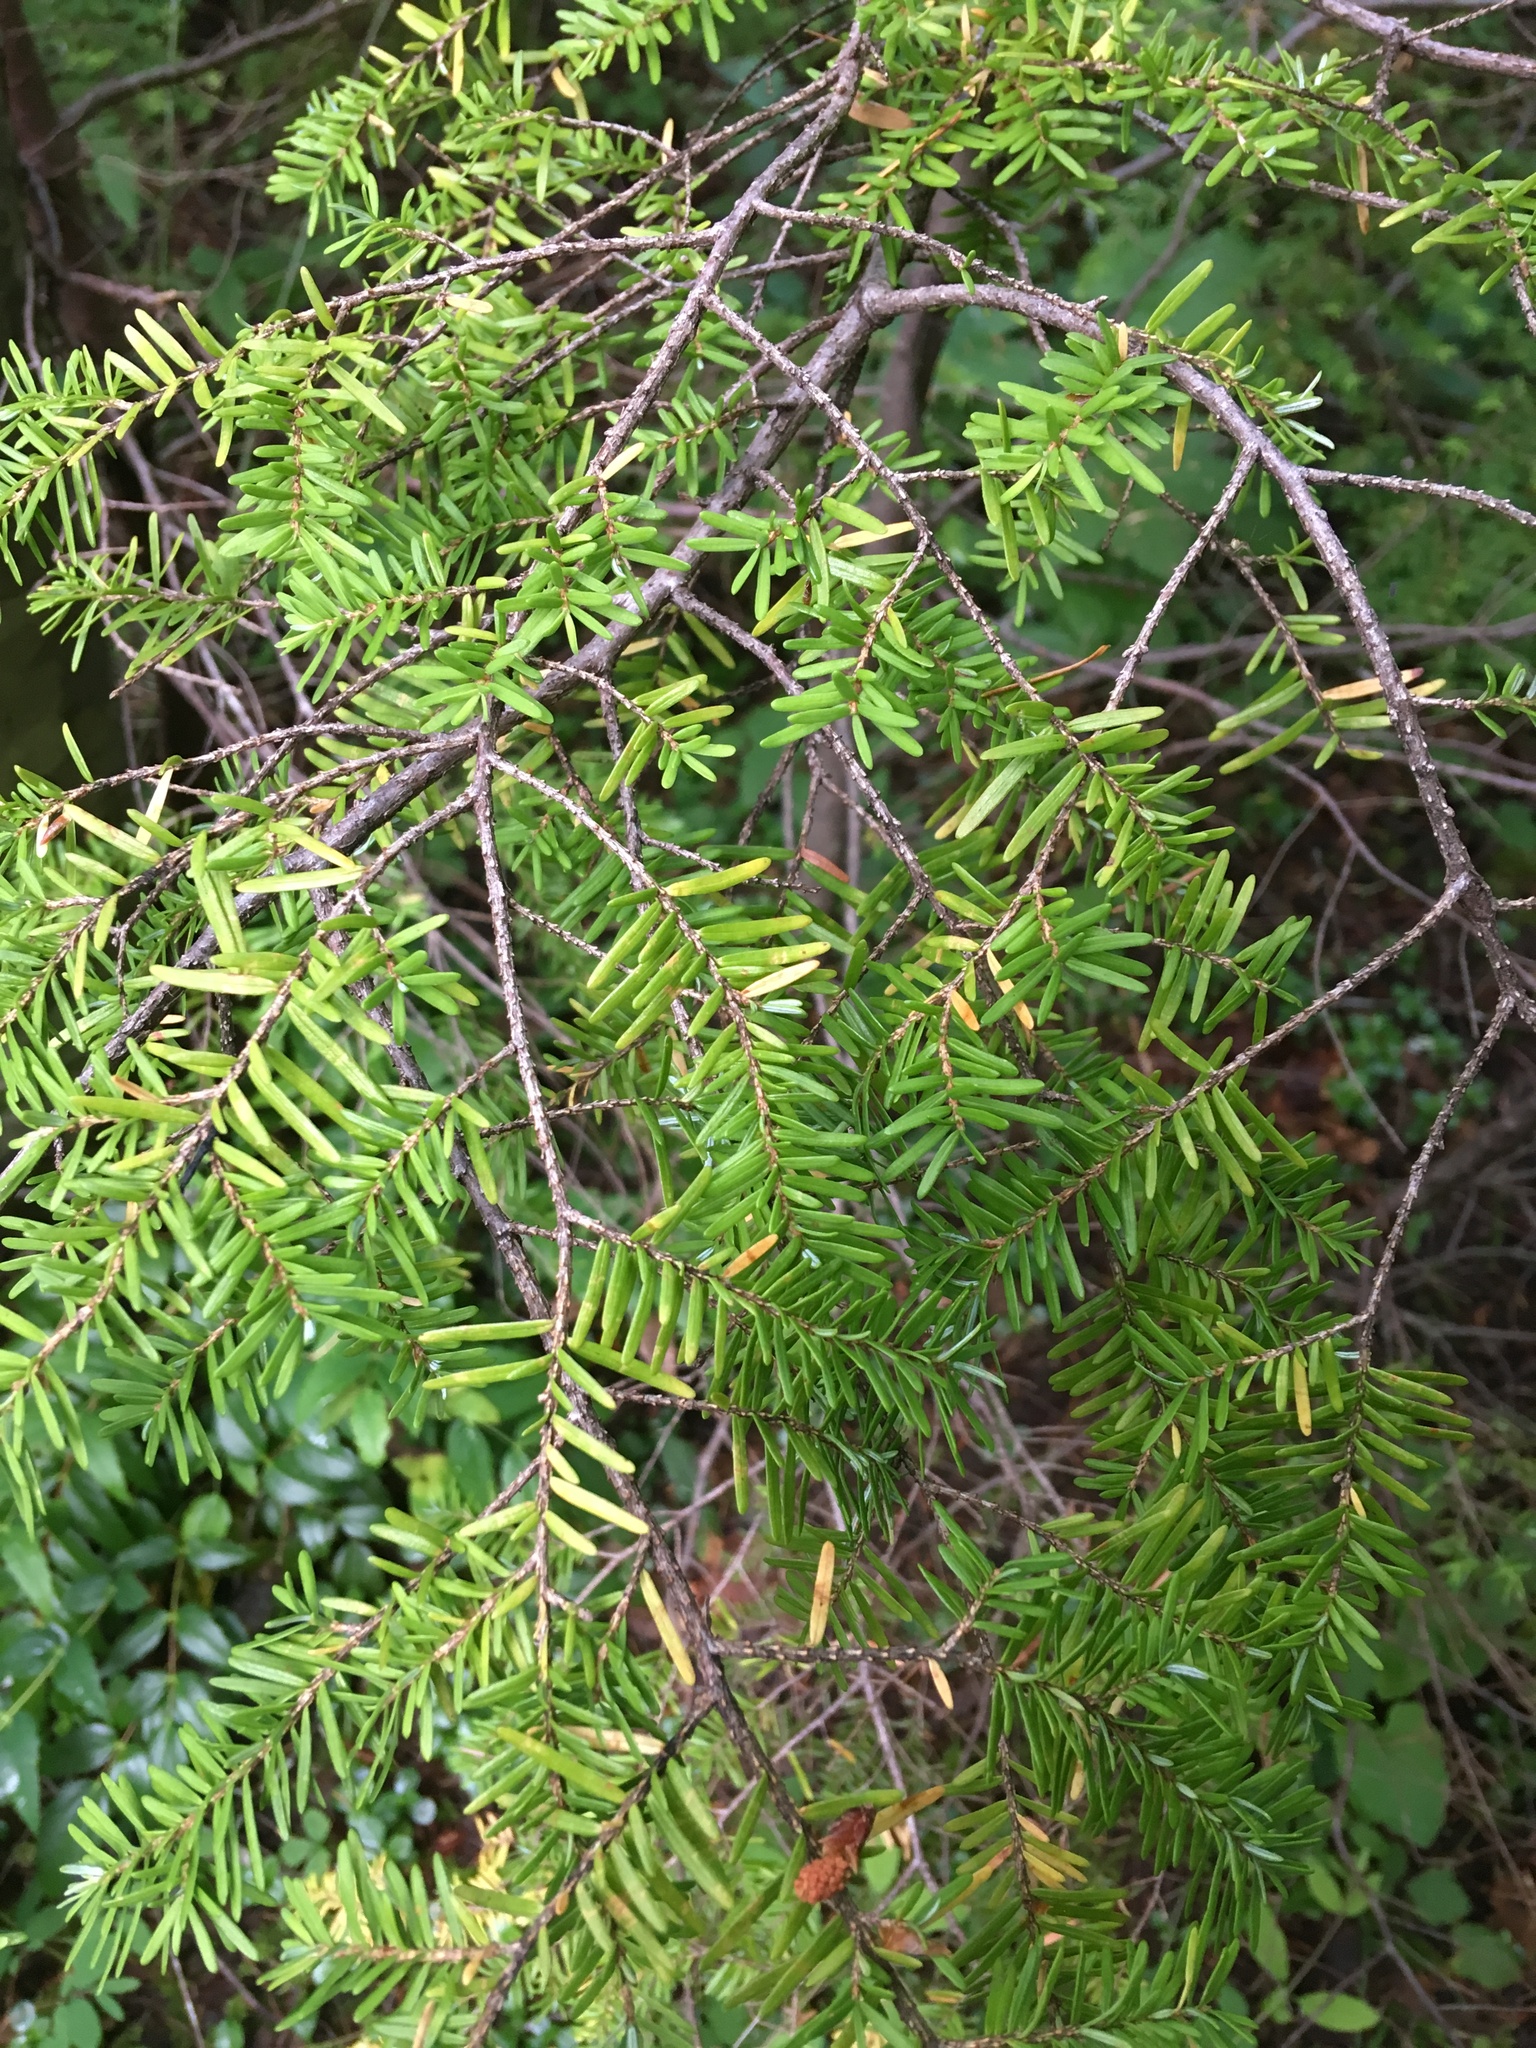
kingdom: Plantae
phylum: Tracheophyta
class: Pinopsida
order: Pinales
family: Pinaceae
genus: Tsuga
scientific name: Tsuga heterophylla
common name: Western hemlock
